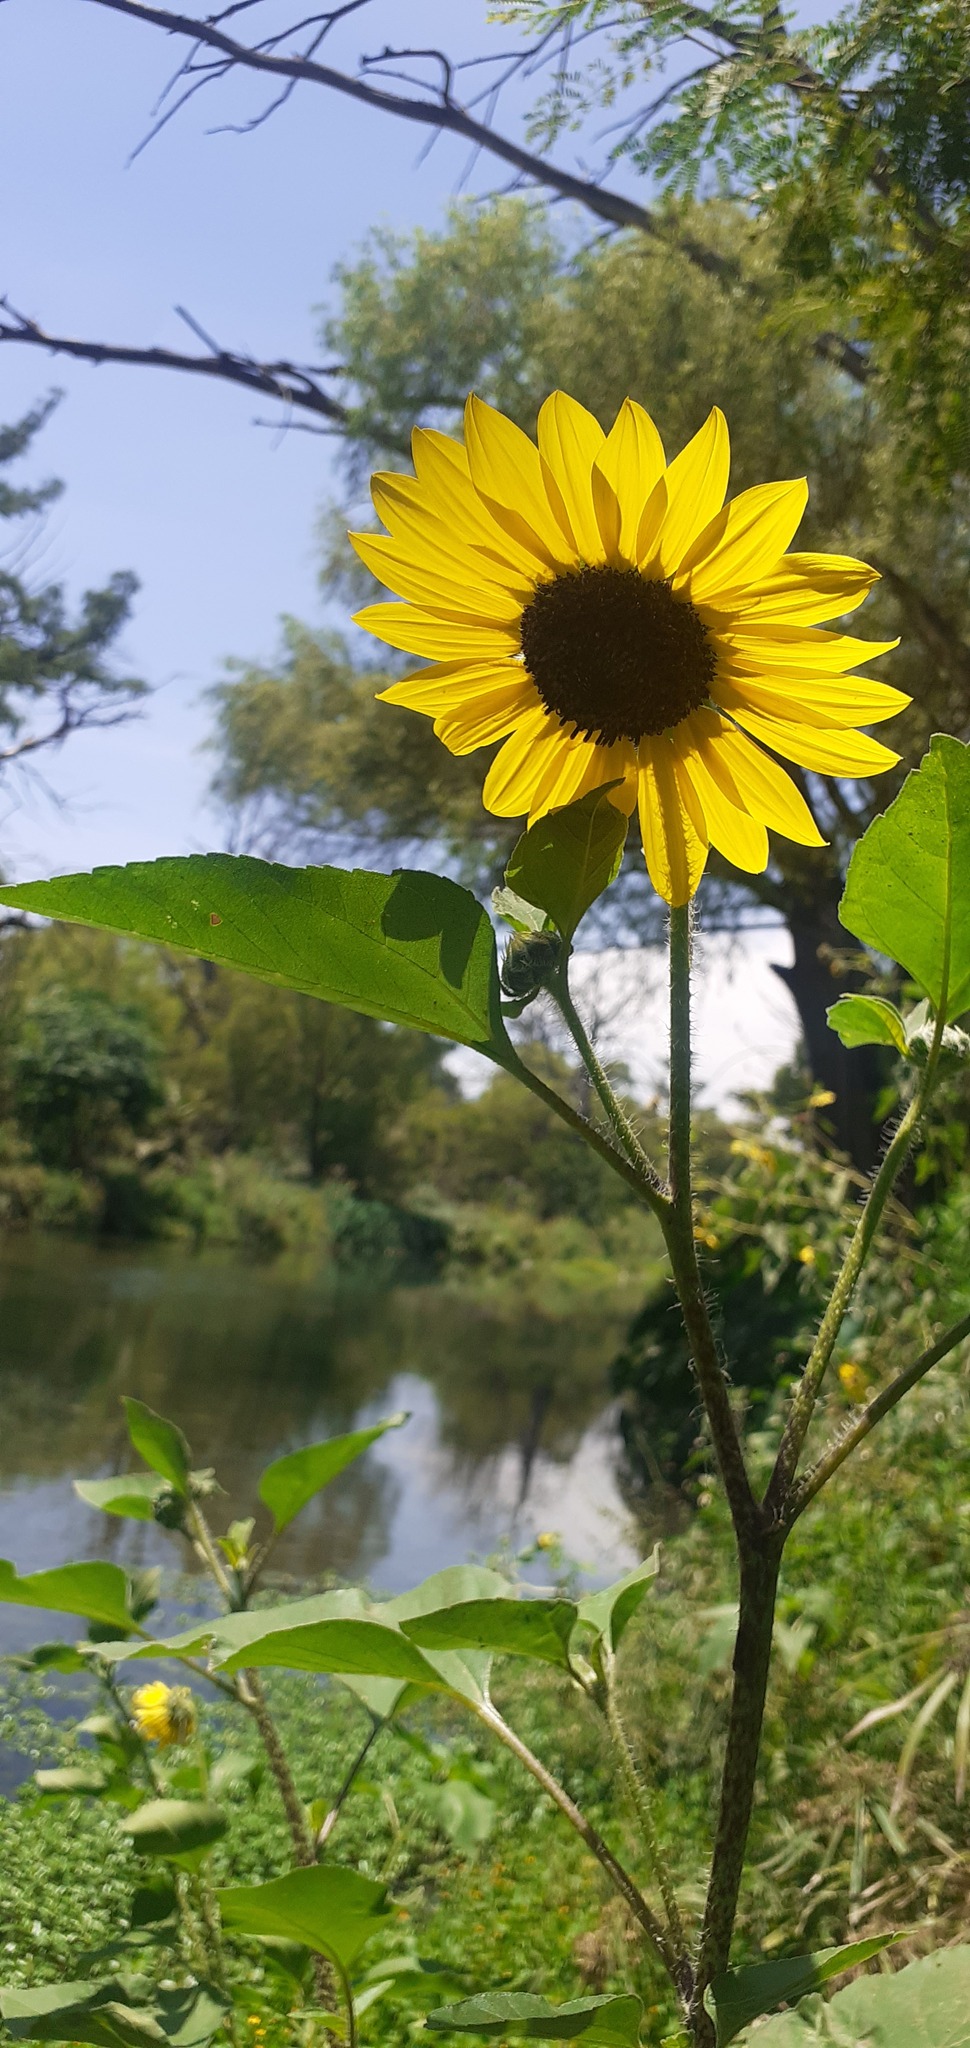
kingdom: Plantae
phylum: Tracheophyta
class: Magnoliopsida
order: Asterales
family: Asteraceae
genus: Helianthus
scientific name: Helianthus annuus
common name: Sunflower
